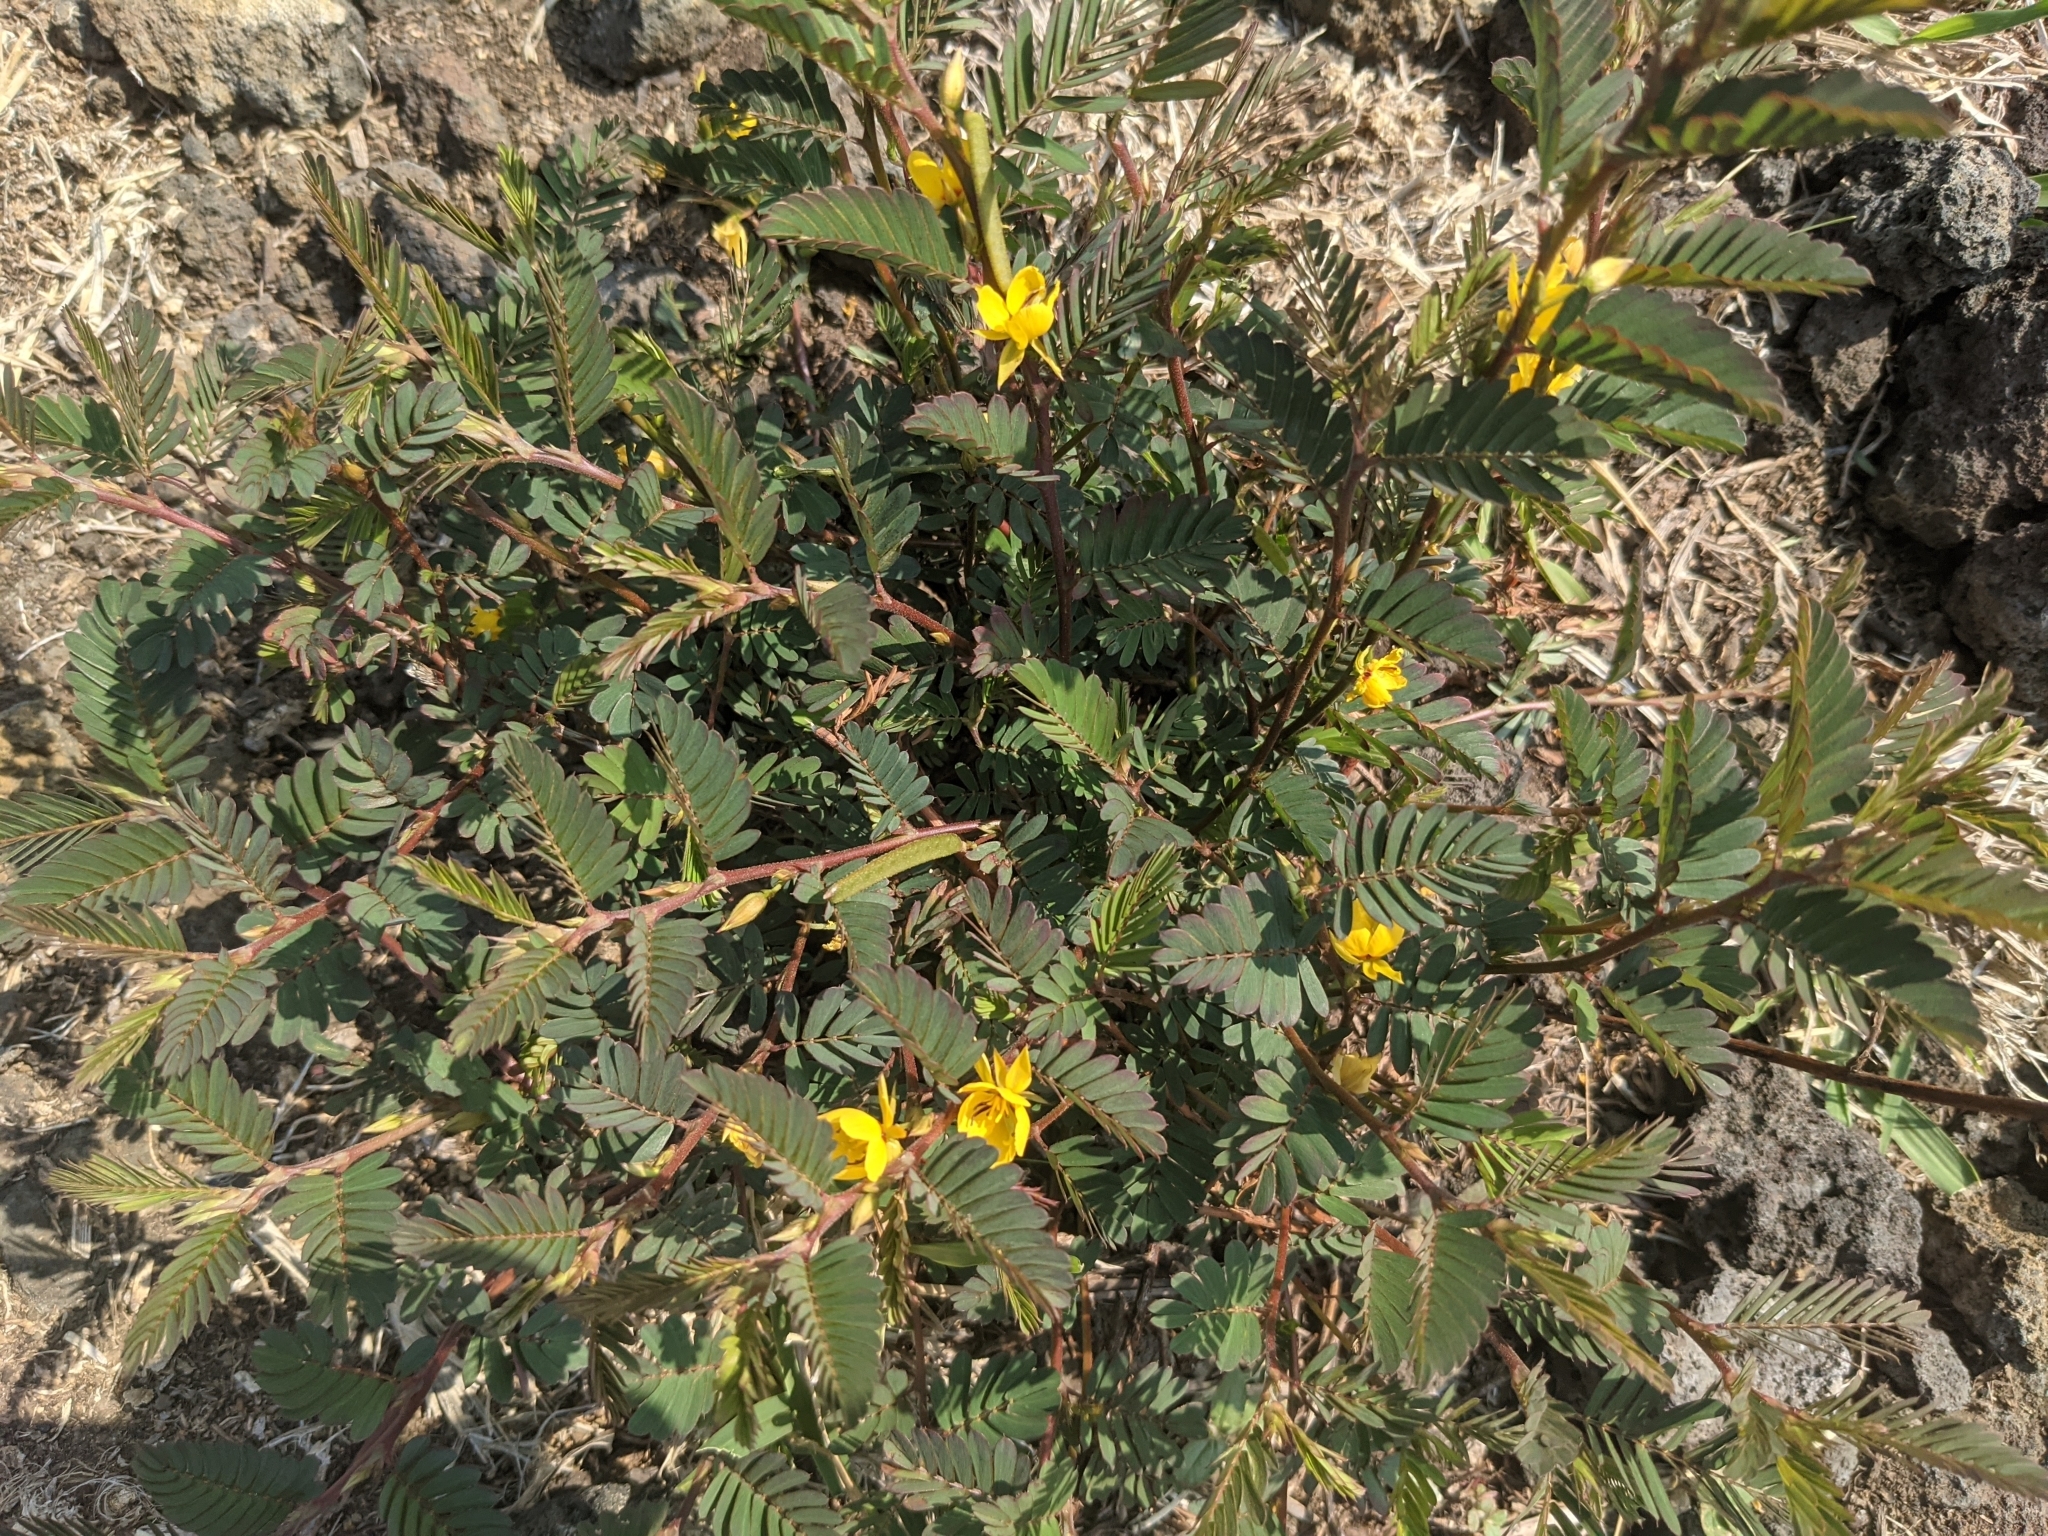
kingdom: Plantae
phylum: Tracheophyta
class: Magnoliopsida
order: Fabales
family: Fabaceae
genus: Chamaecrista
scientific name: Chamaecrista nictitans
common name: Sensitive cassia
